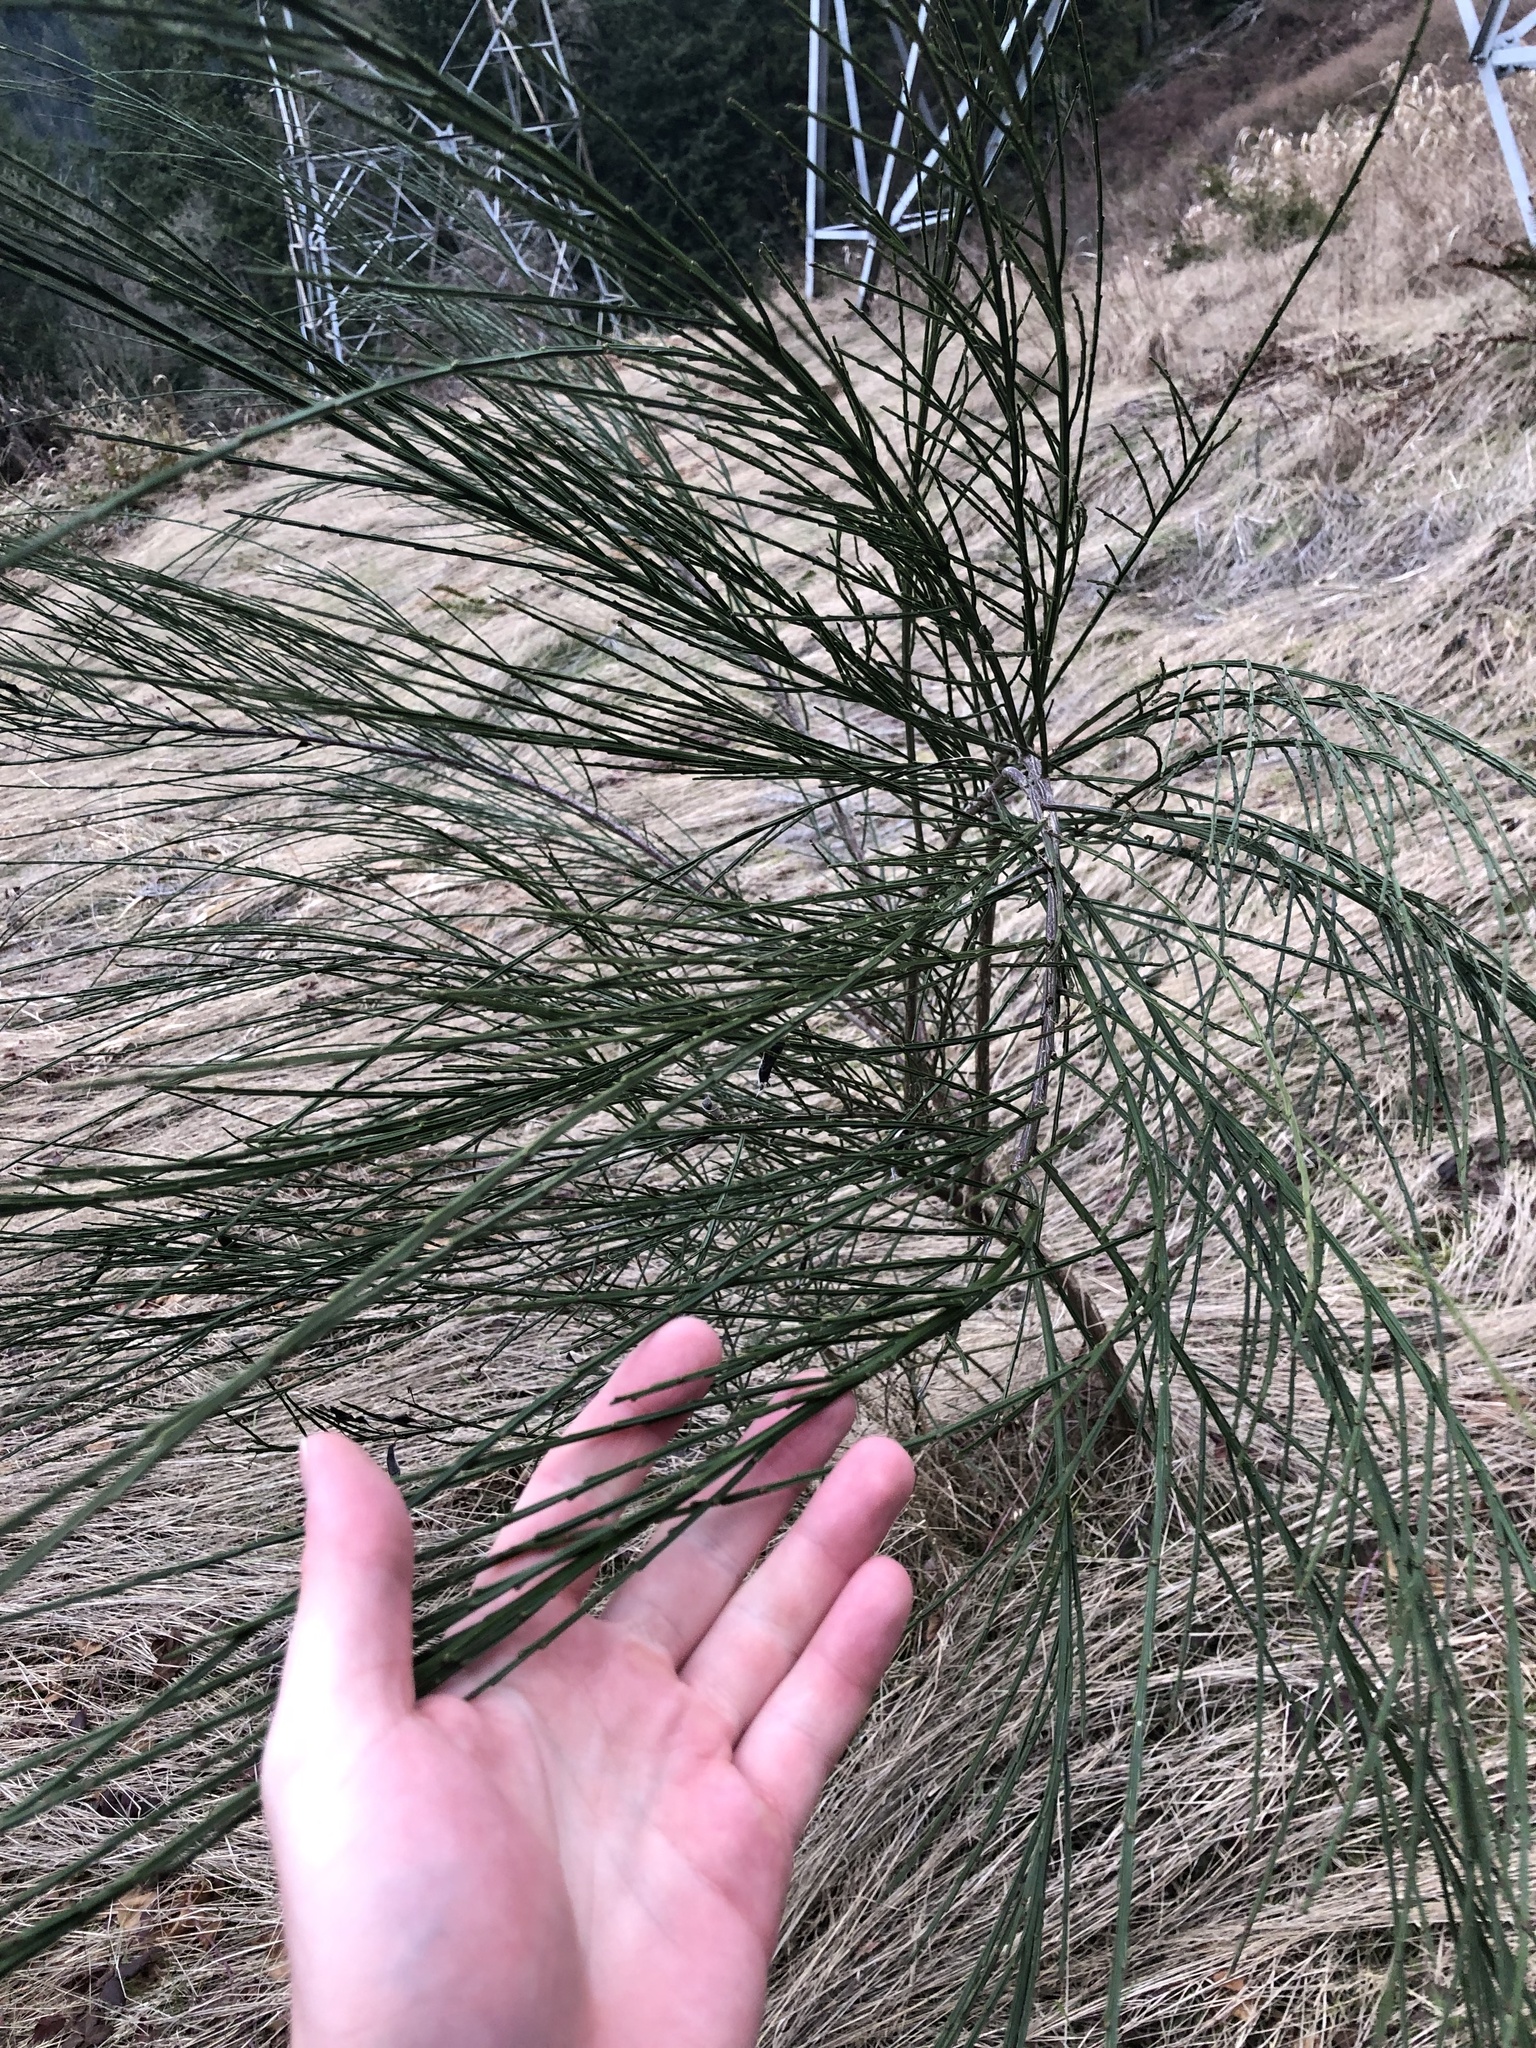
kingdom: Plantae
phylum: Tracheophyta
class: Magnoliopsida
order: Fabales
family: Fabaceae
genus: Cytisus
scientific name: Cytisus scoparius
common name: Scotch broom
